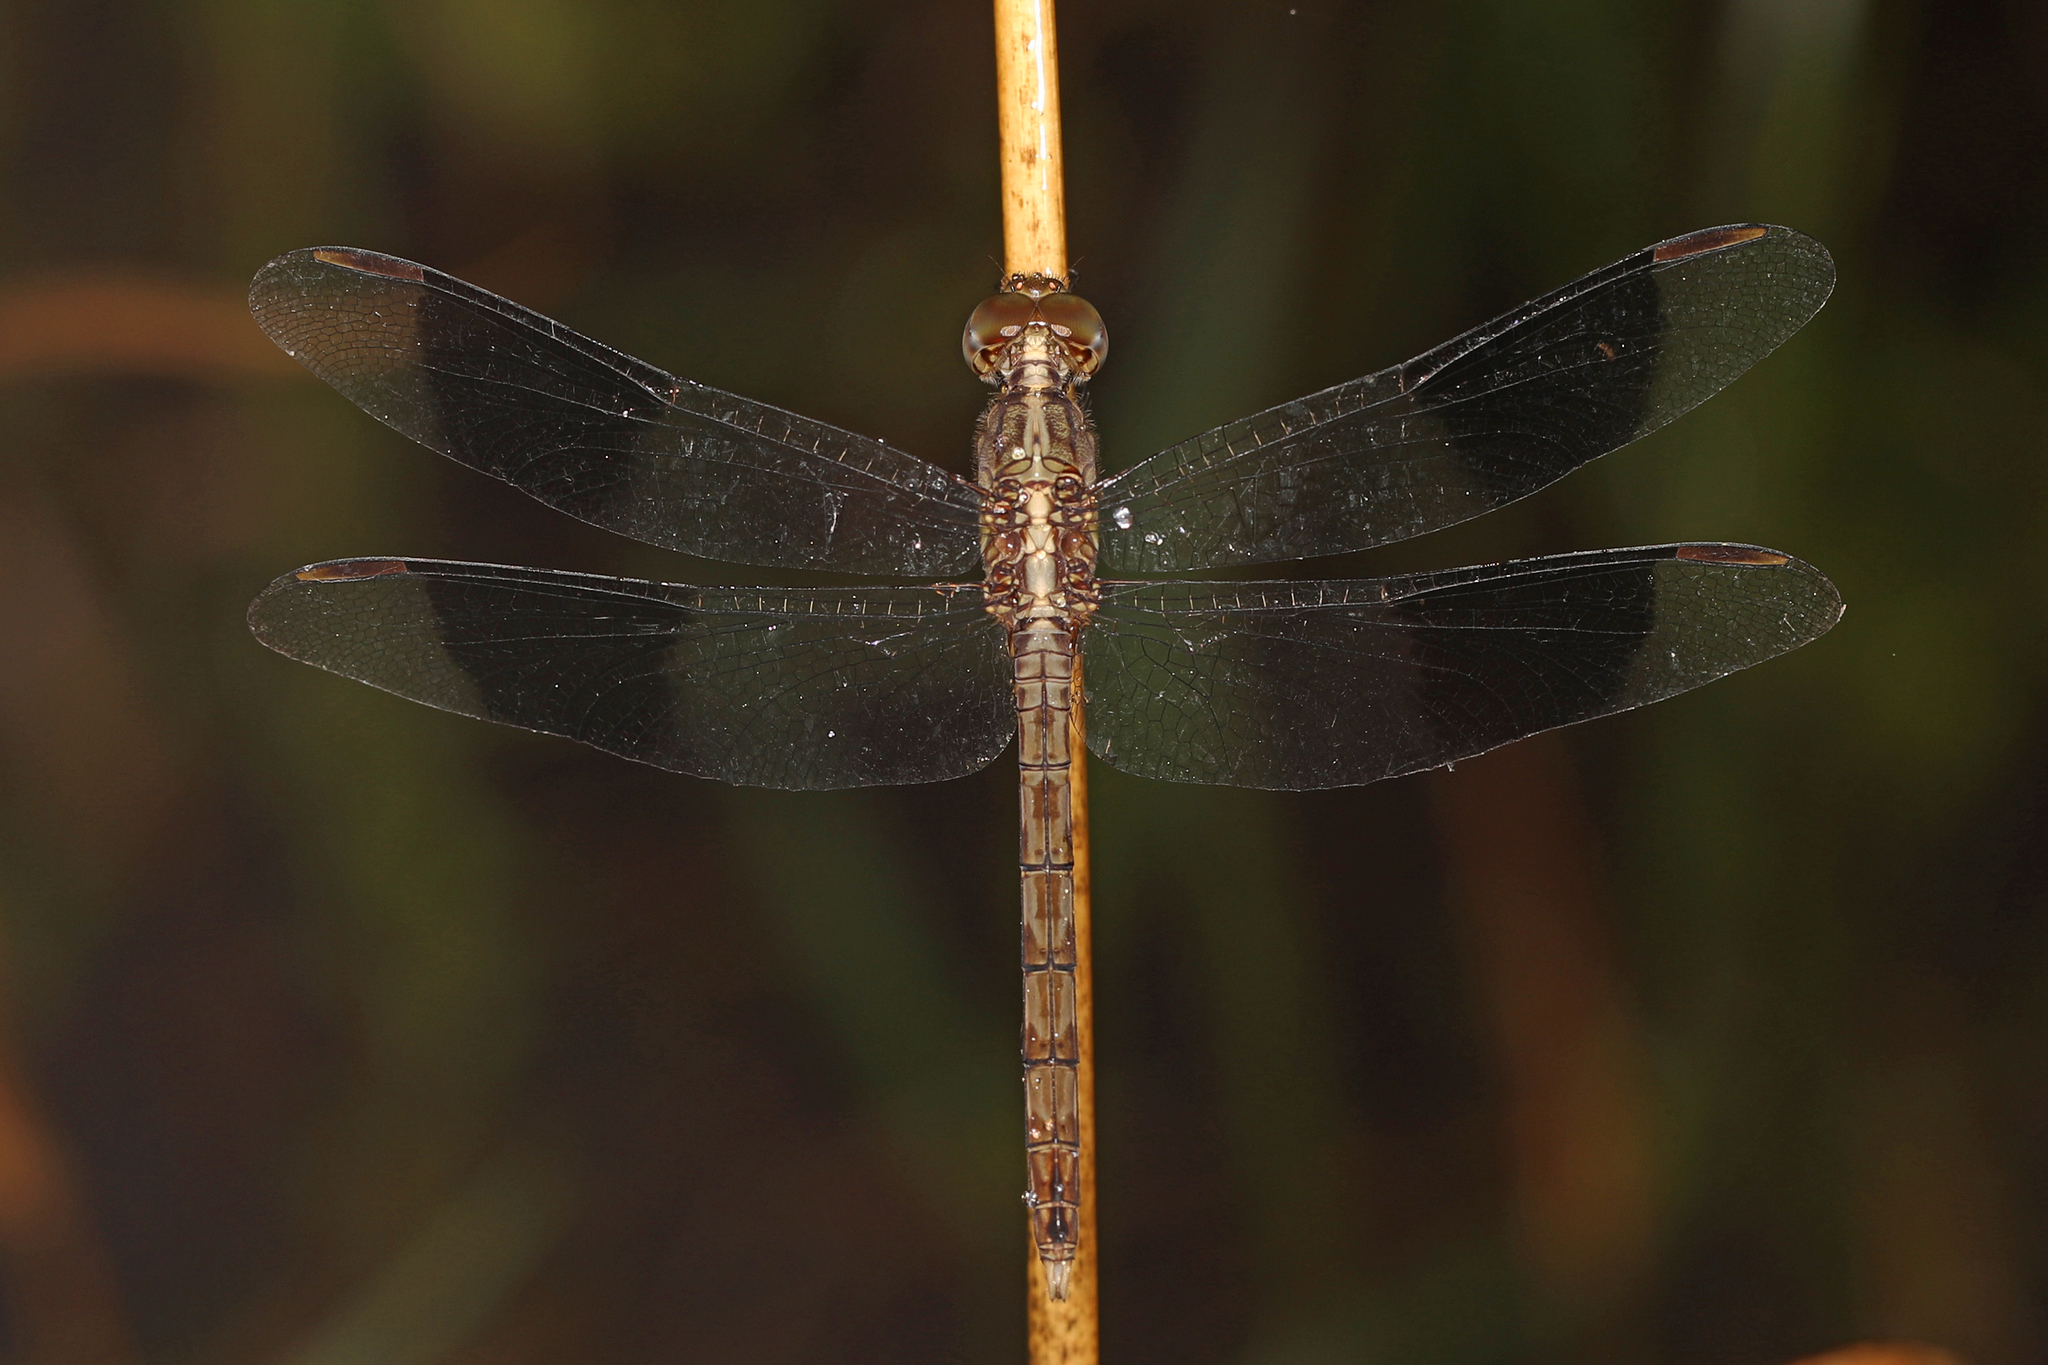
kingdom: Animalia
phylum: Arthropoda
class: Insecta
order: Odonata
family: Libellulidae
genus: Erythrodiplax
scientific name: Erythrodiplax umbrata
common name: Band-winged dragonlet
